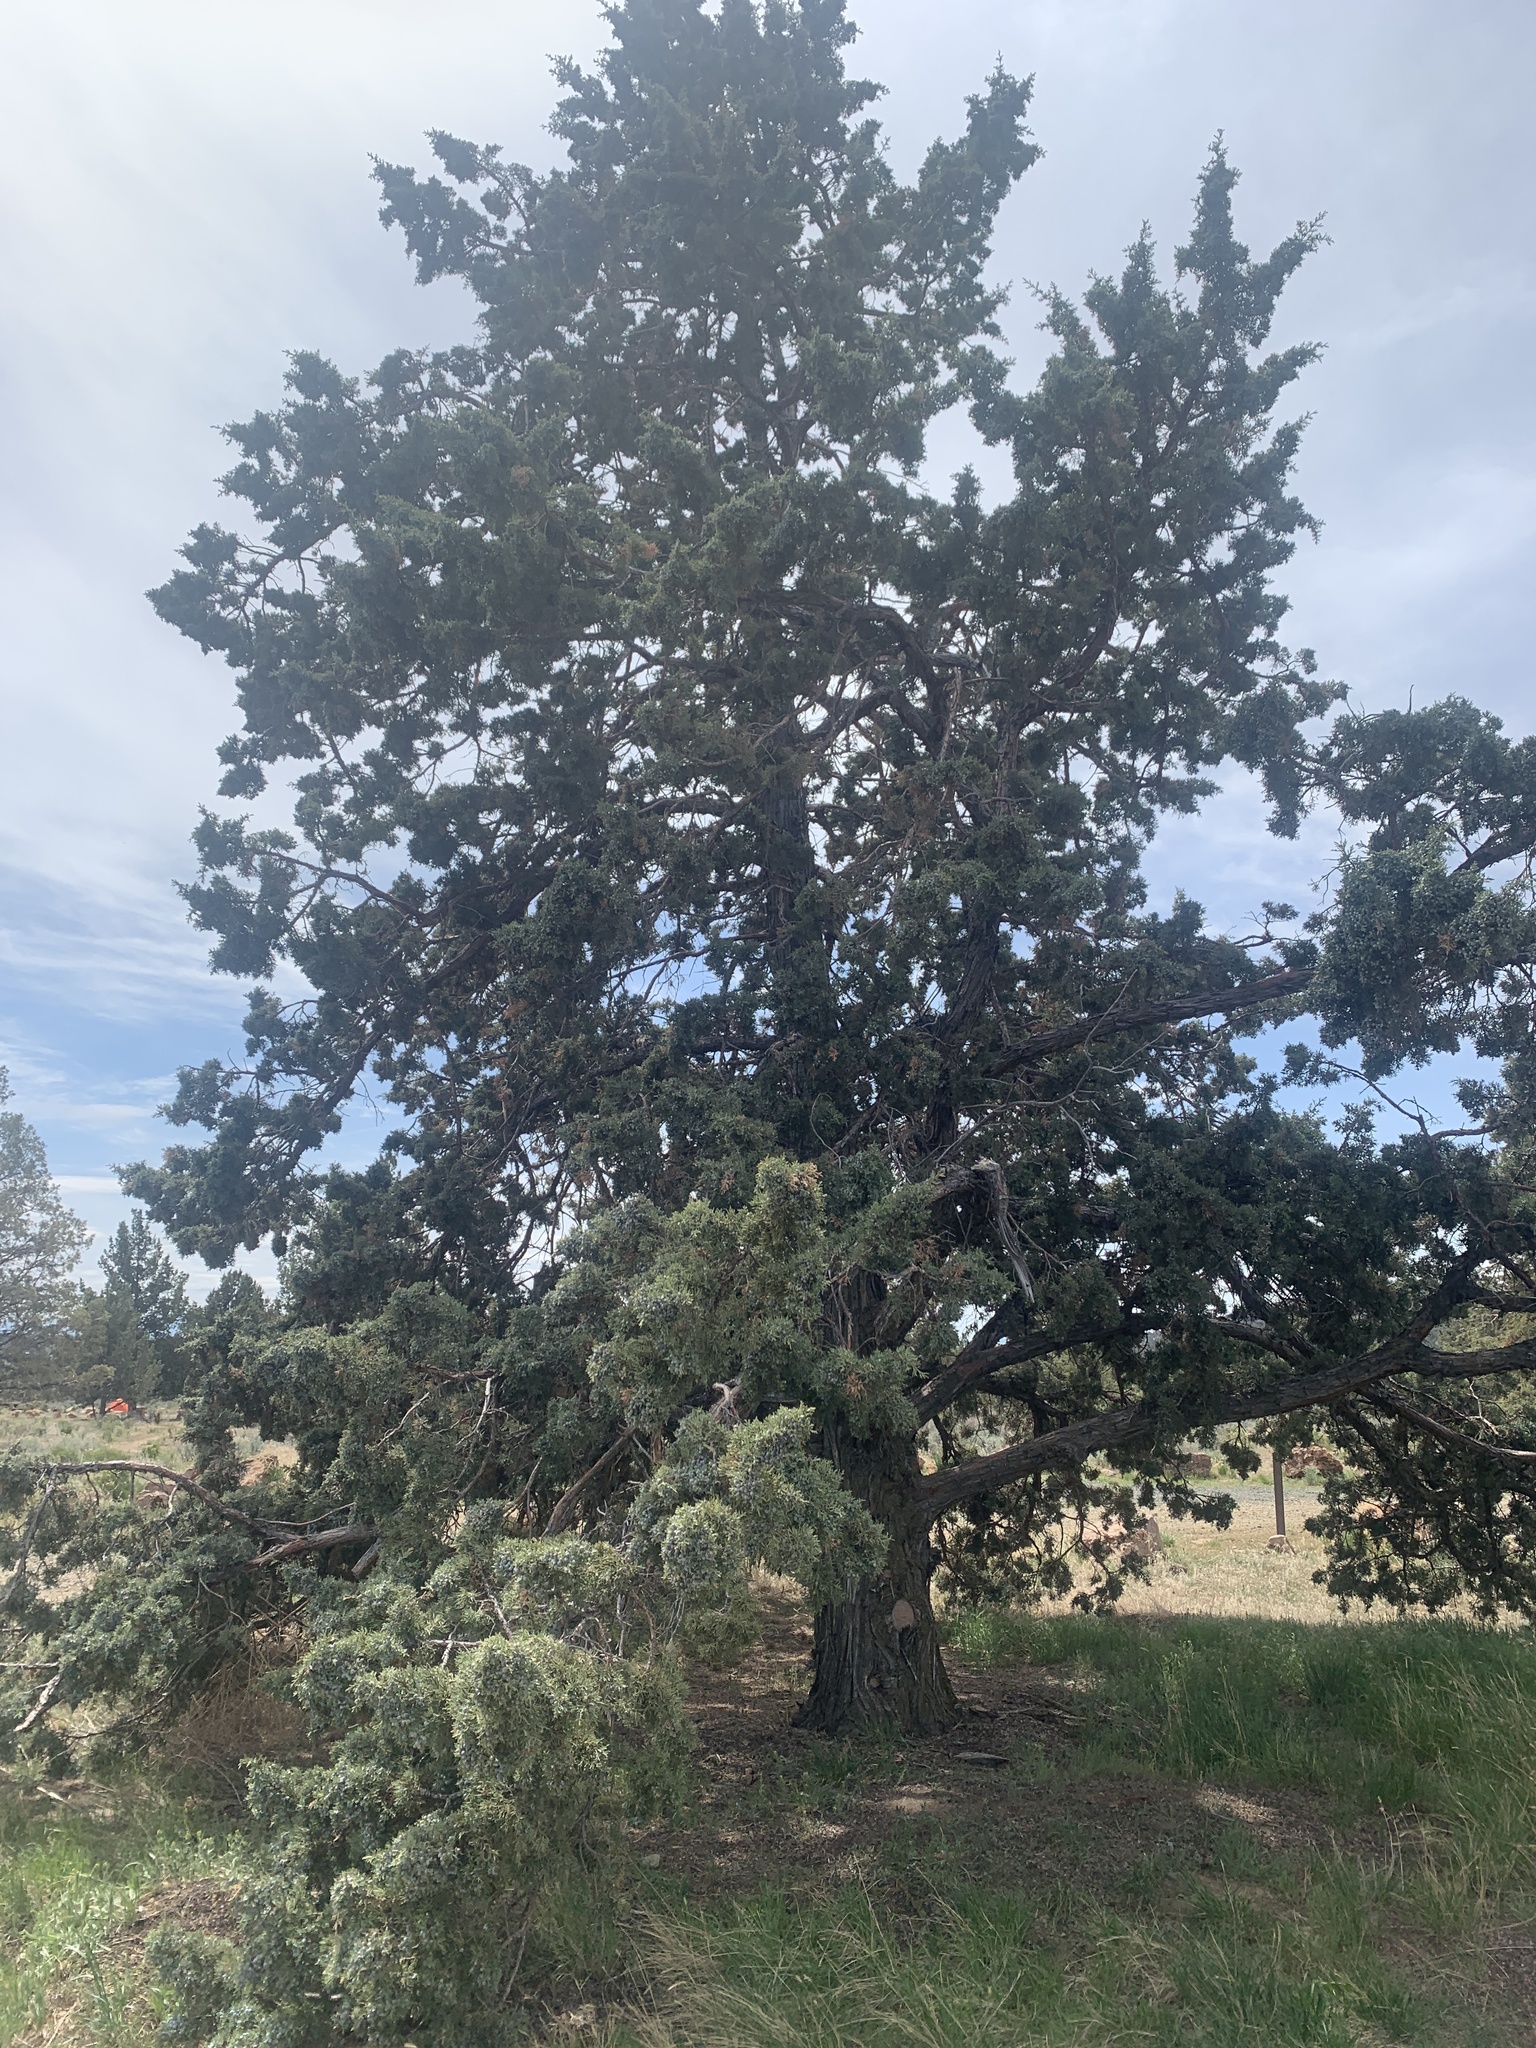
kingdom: Plantae
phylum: Tracheophyta
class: Pinopsida
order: Pinales
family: Cupressaceae
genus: Juniperus
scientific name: Juniperus occidentalis
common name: Western juniper
